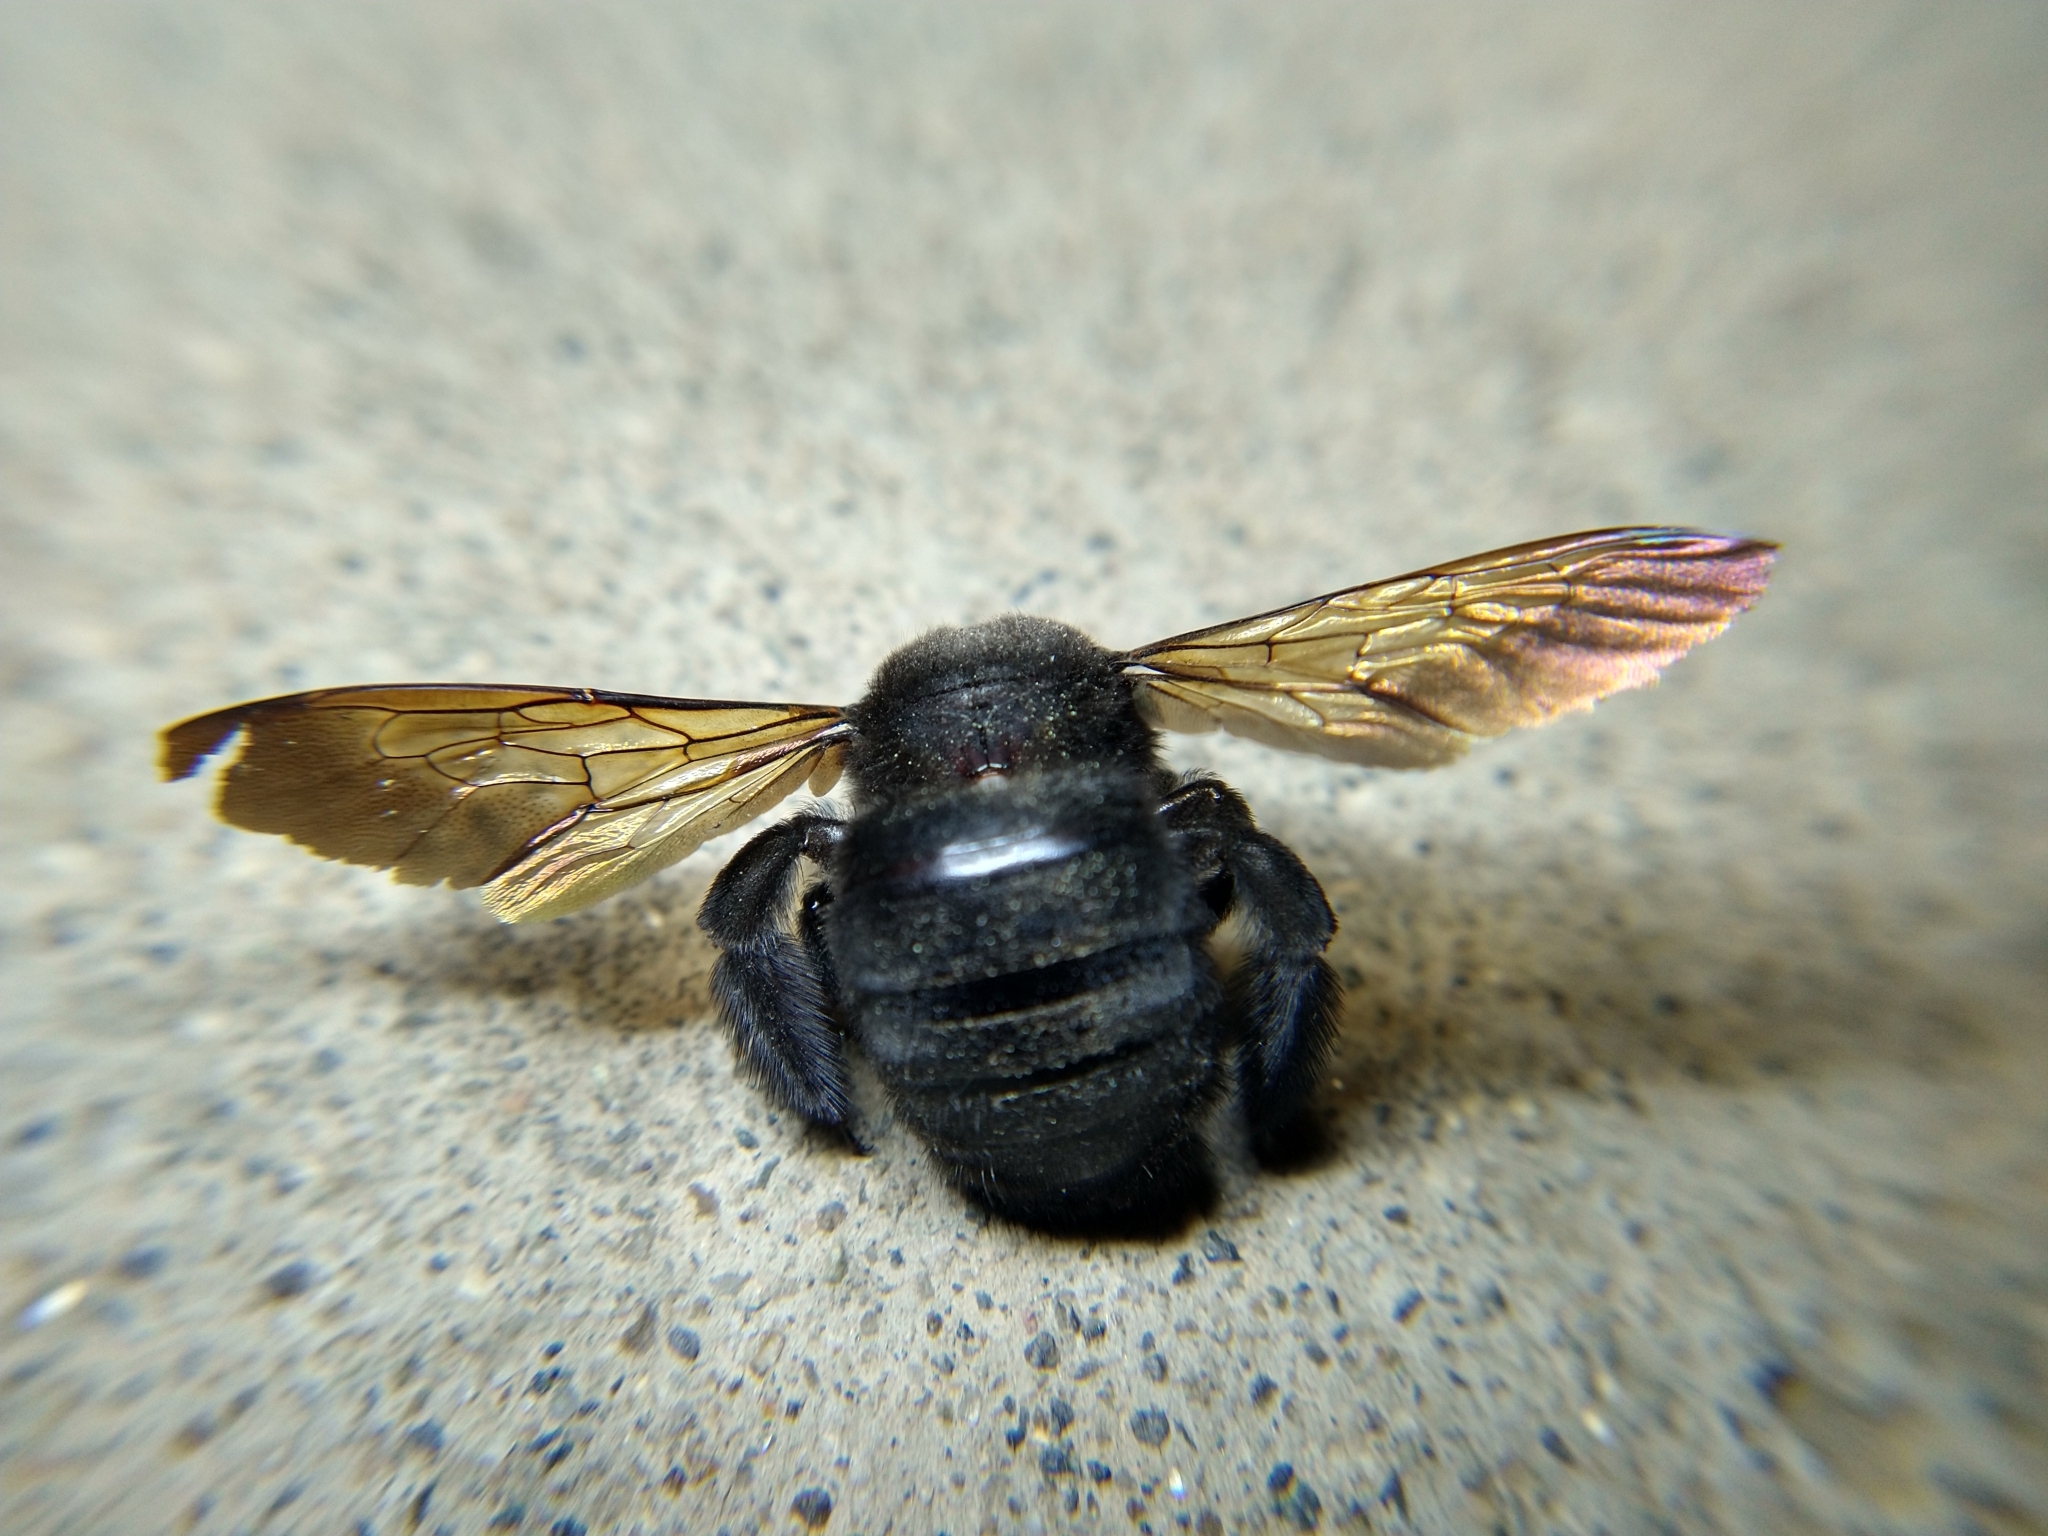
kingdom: Animalia
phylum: Arthropoda
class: Insecta
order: Hymenoptera
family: Apidae
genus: Xylocopa
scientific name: Xylocopa sonorina
